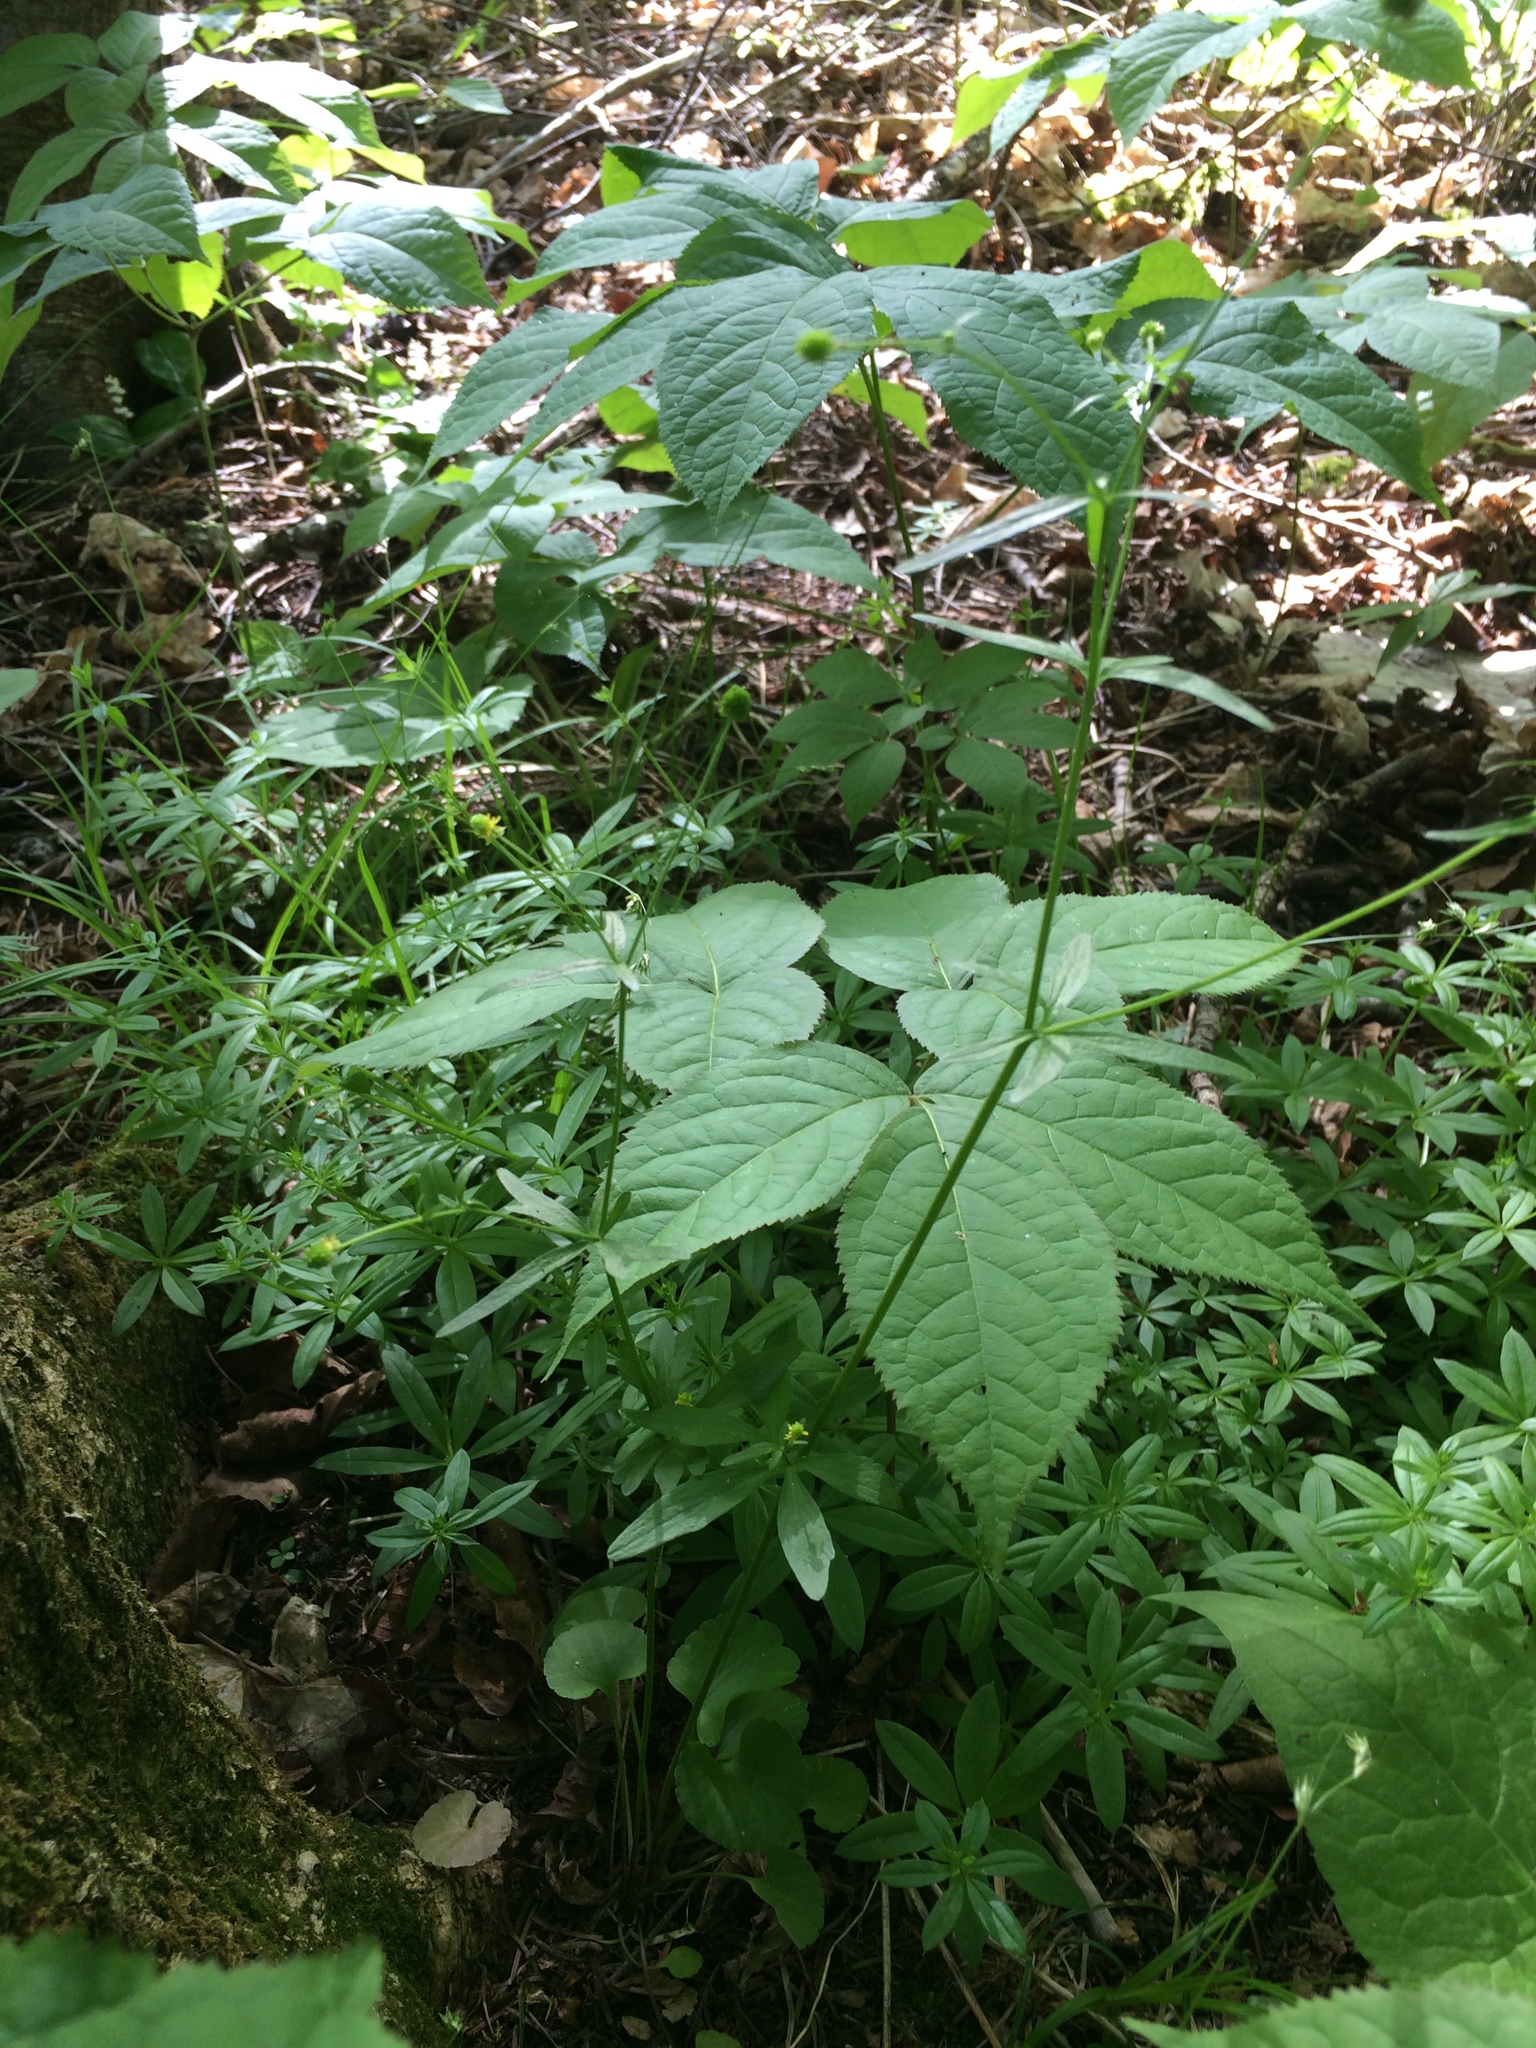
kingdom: Plantae
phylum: Tracheophyta
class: Magnoliopsida
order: Apiales
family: Araliaceae
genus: Aralia
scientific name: Aralia nudicaulis
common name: Wild sarsaparilla
